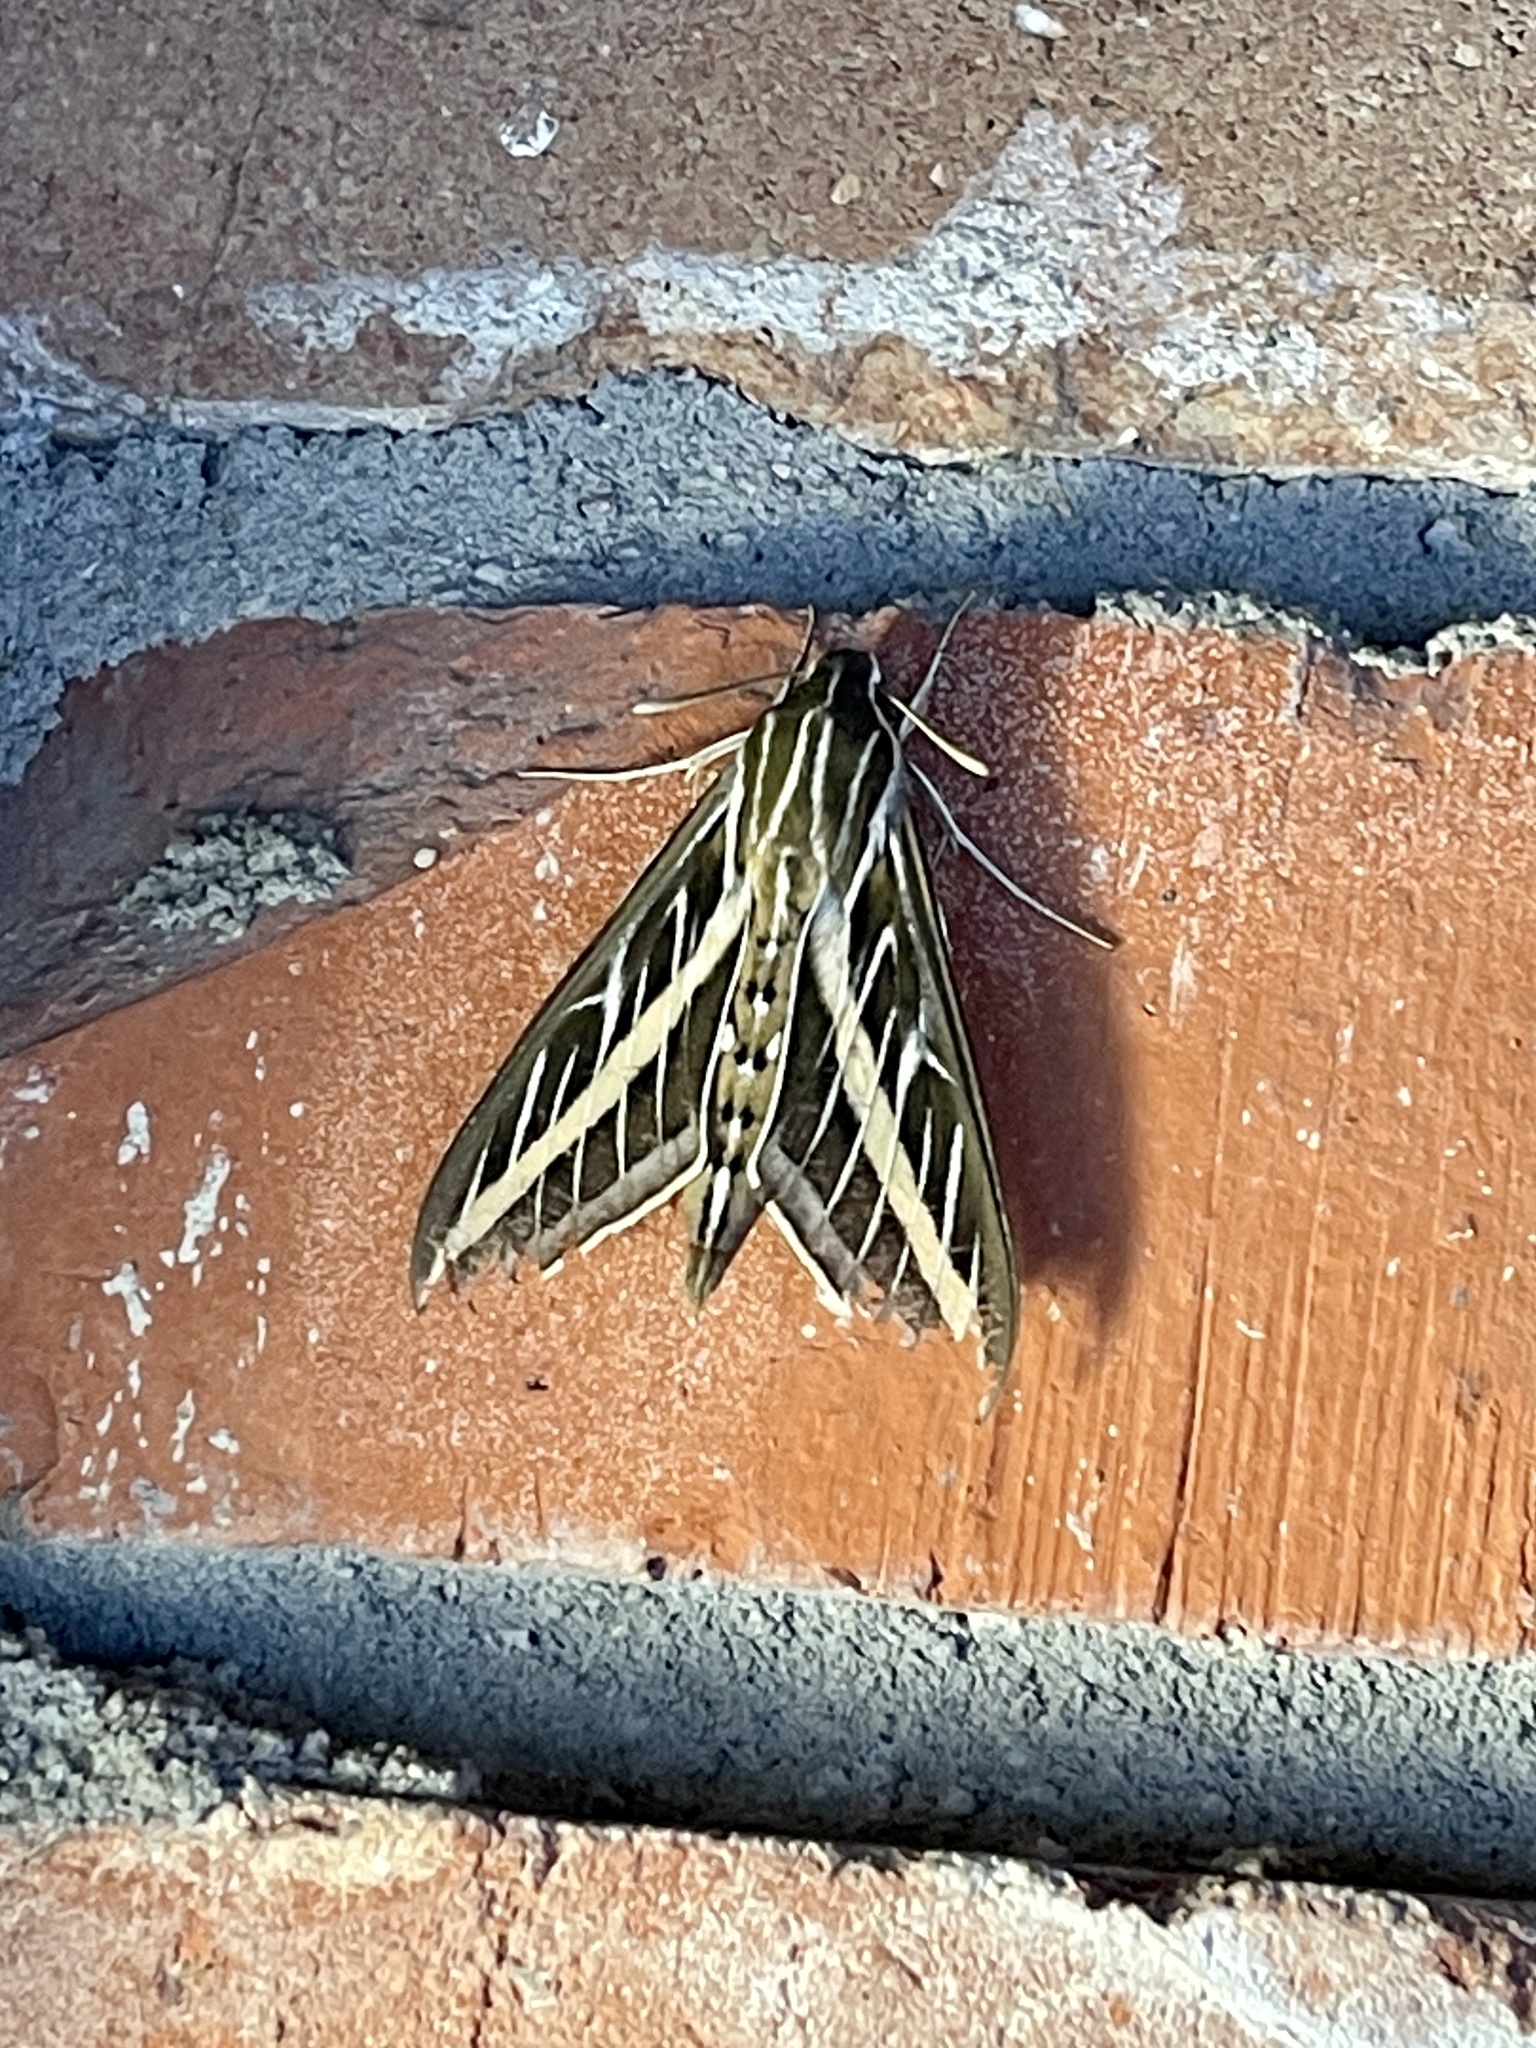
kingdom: Animalia
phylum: Arthropoda
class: Insecta
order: Lepidoptera
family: Sphingidae
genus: Hyles
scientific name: Hyles lineata
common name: White-lined sphinx
